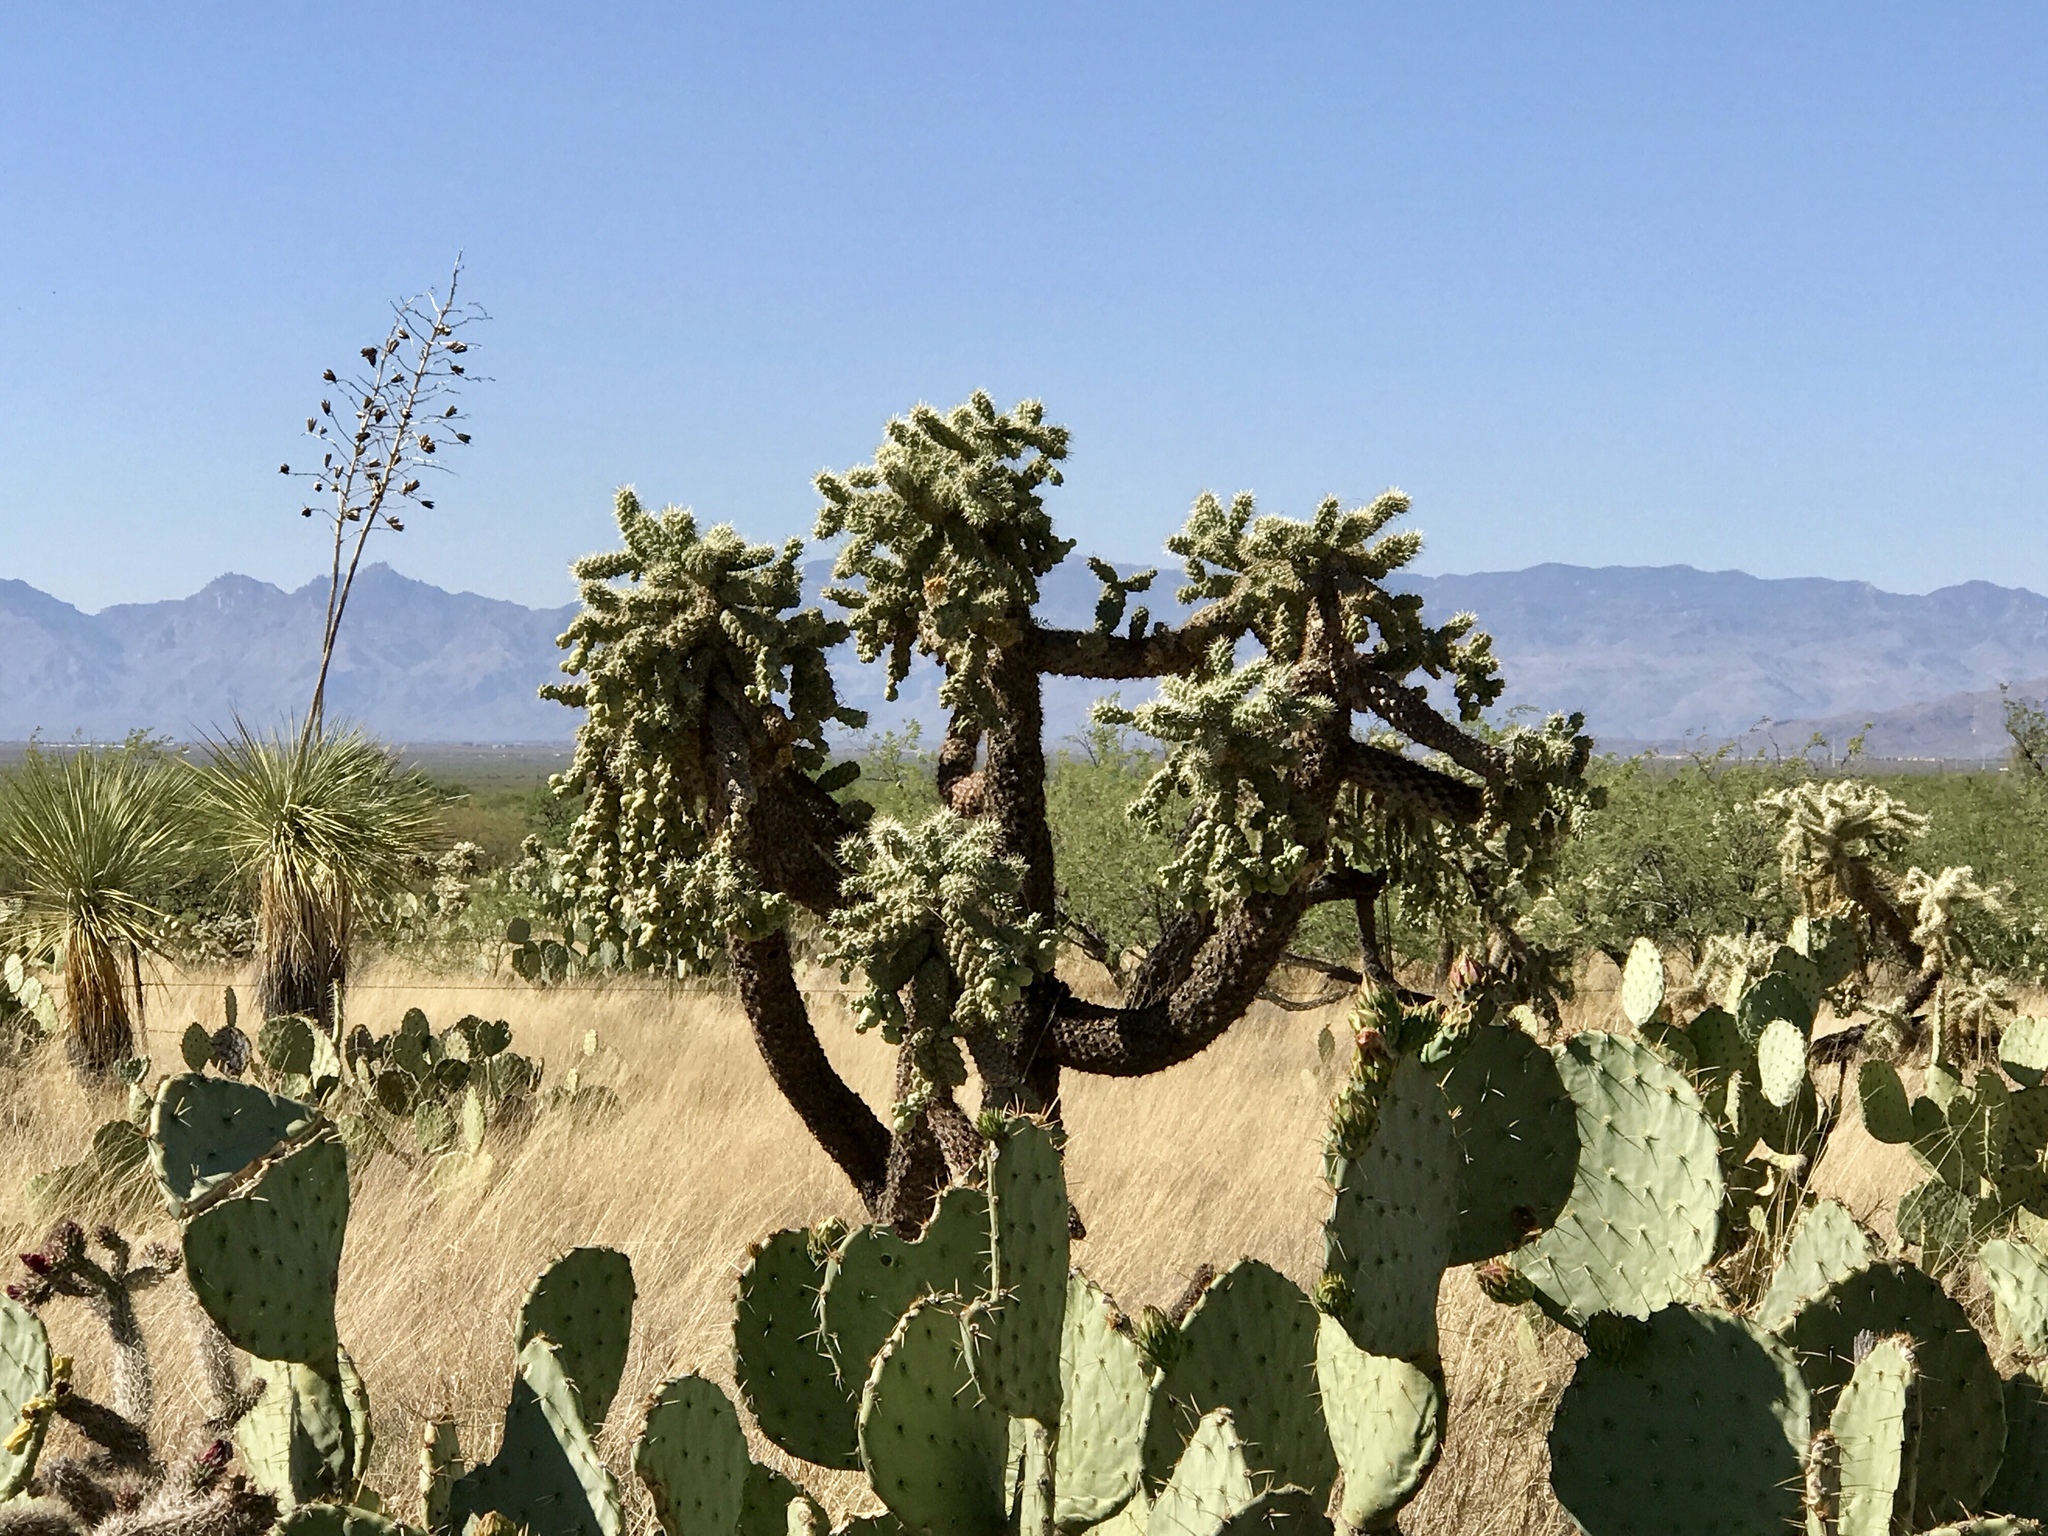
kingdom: Plantae
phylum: Tracheophyta
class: Magnoliopsida
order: Caryophyllales
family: Cactaceae
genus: Cylindropuntia
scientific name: Cylindropuntia fulgida
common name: Jumping cholla
